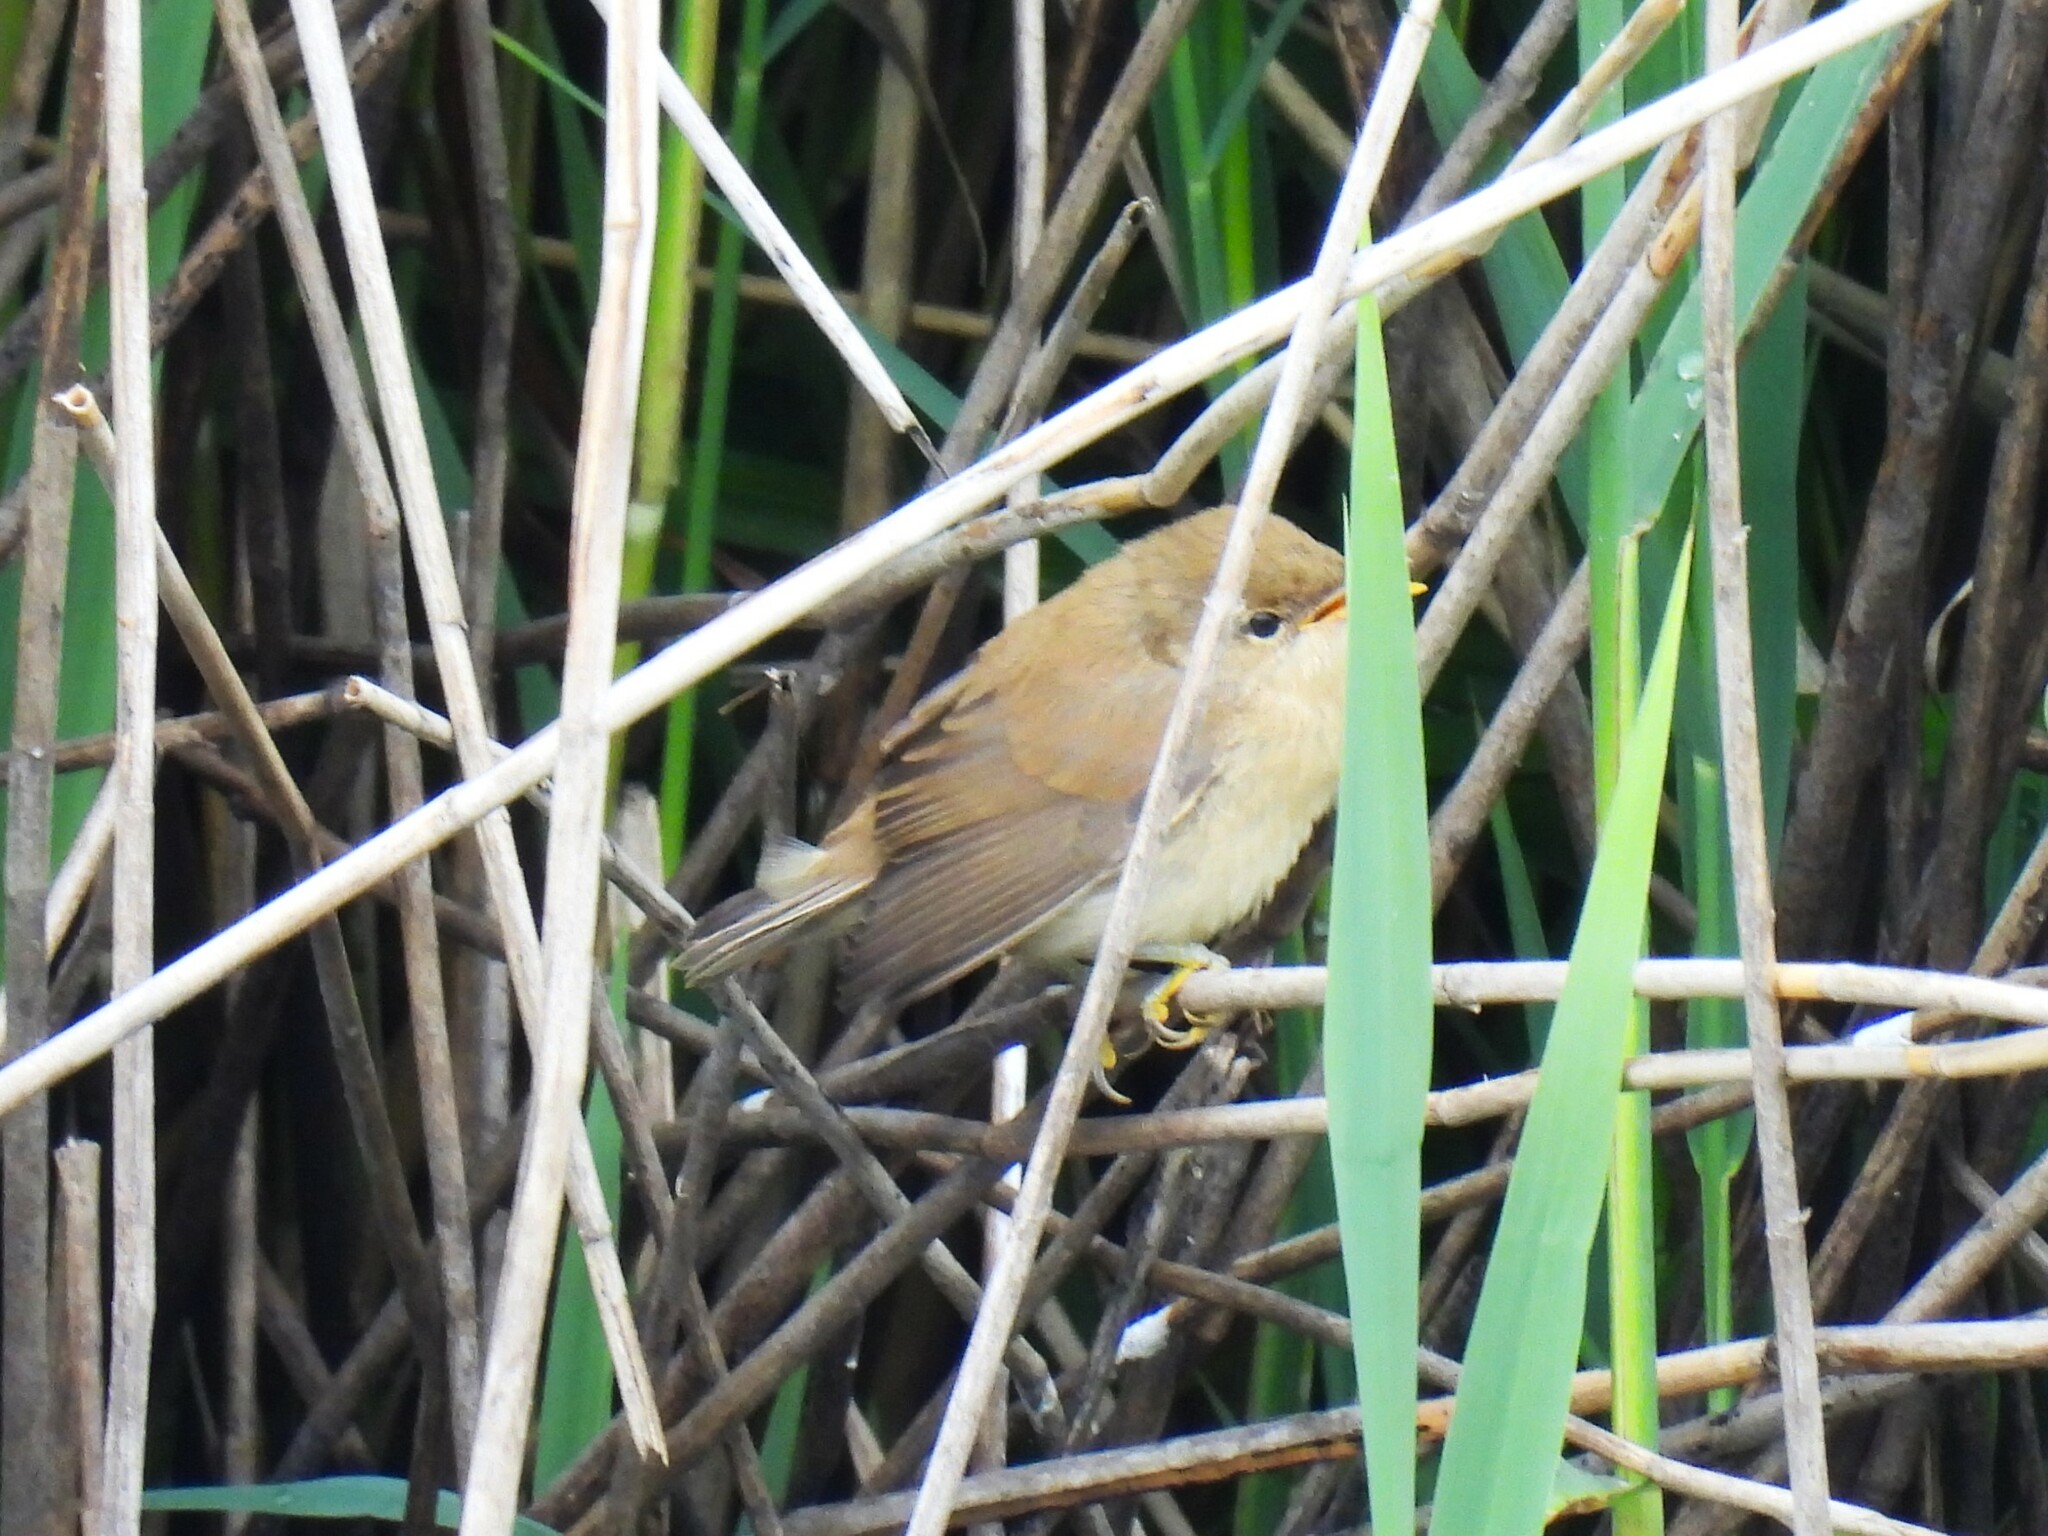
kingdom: Animalia
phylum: Chordata
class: Aves
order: Passeriformes
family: Acrocephalidae
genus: Acrocephalus
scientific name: Acrocephalus scirpaceus
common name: Eurasian reed warbler
